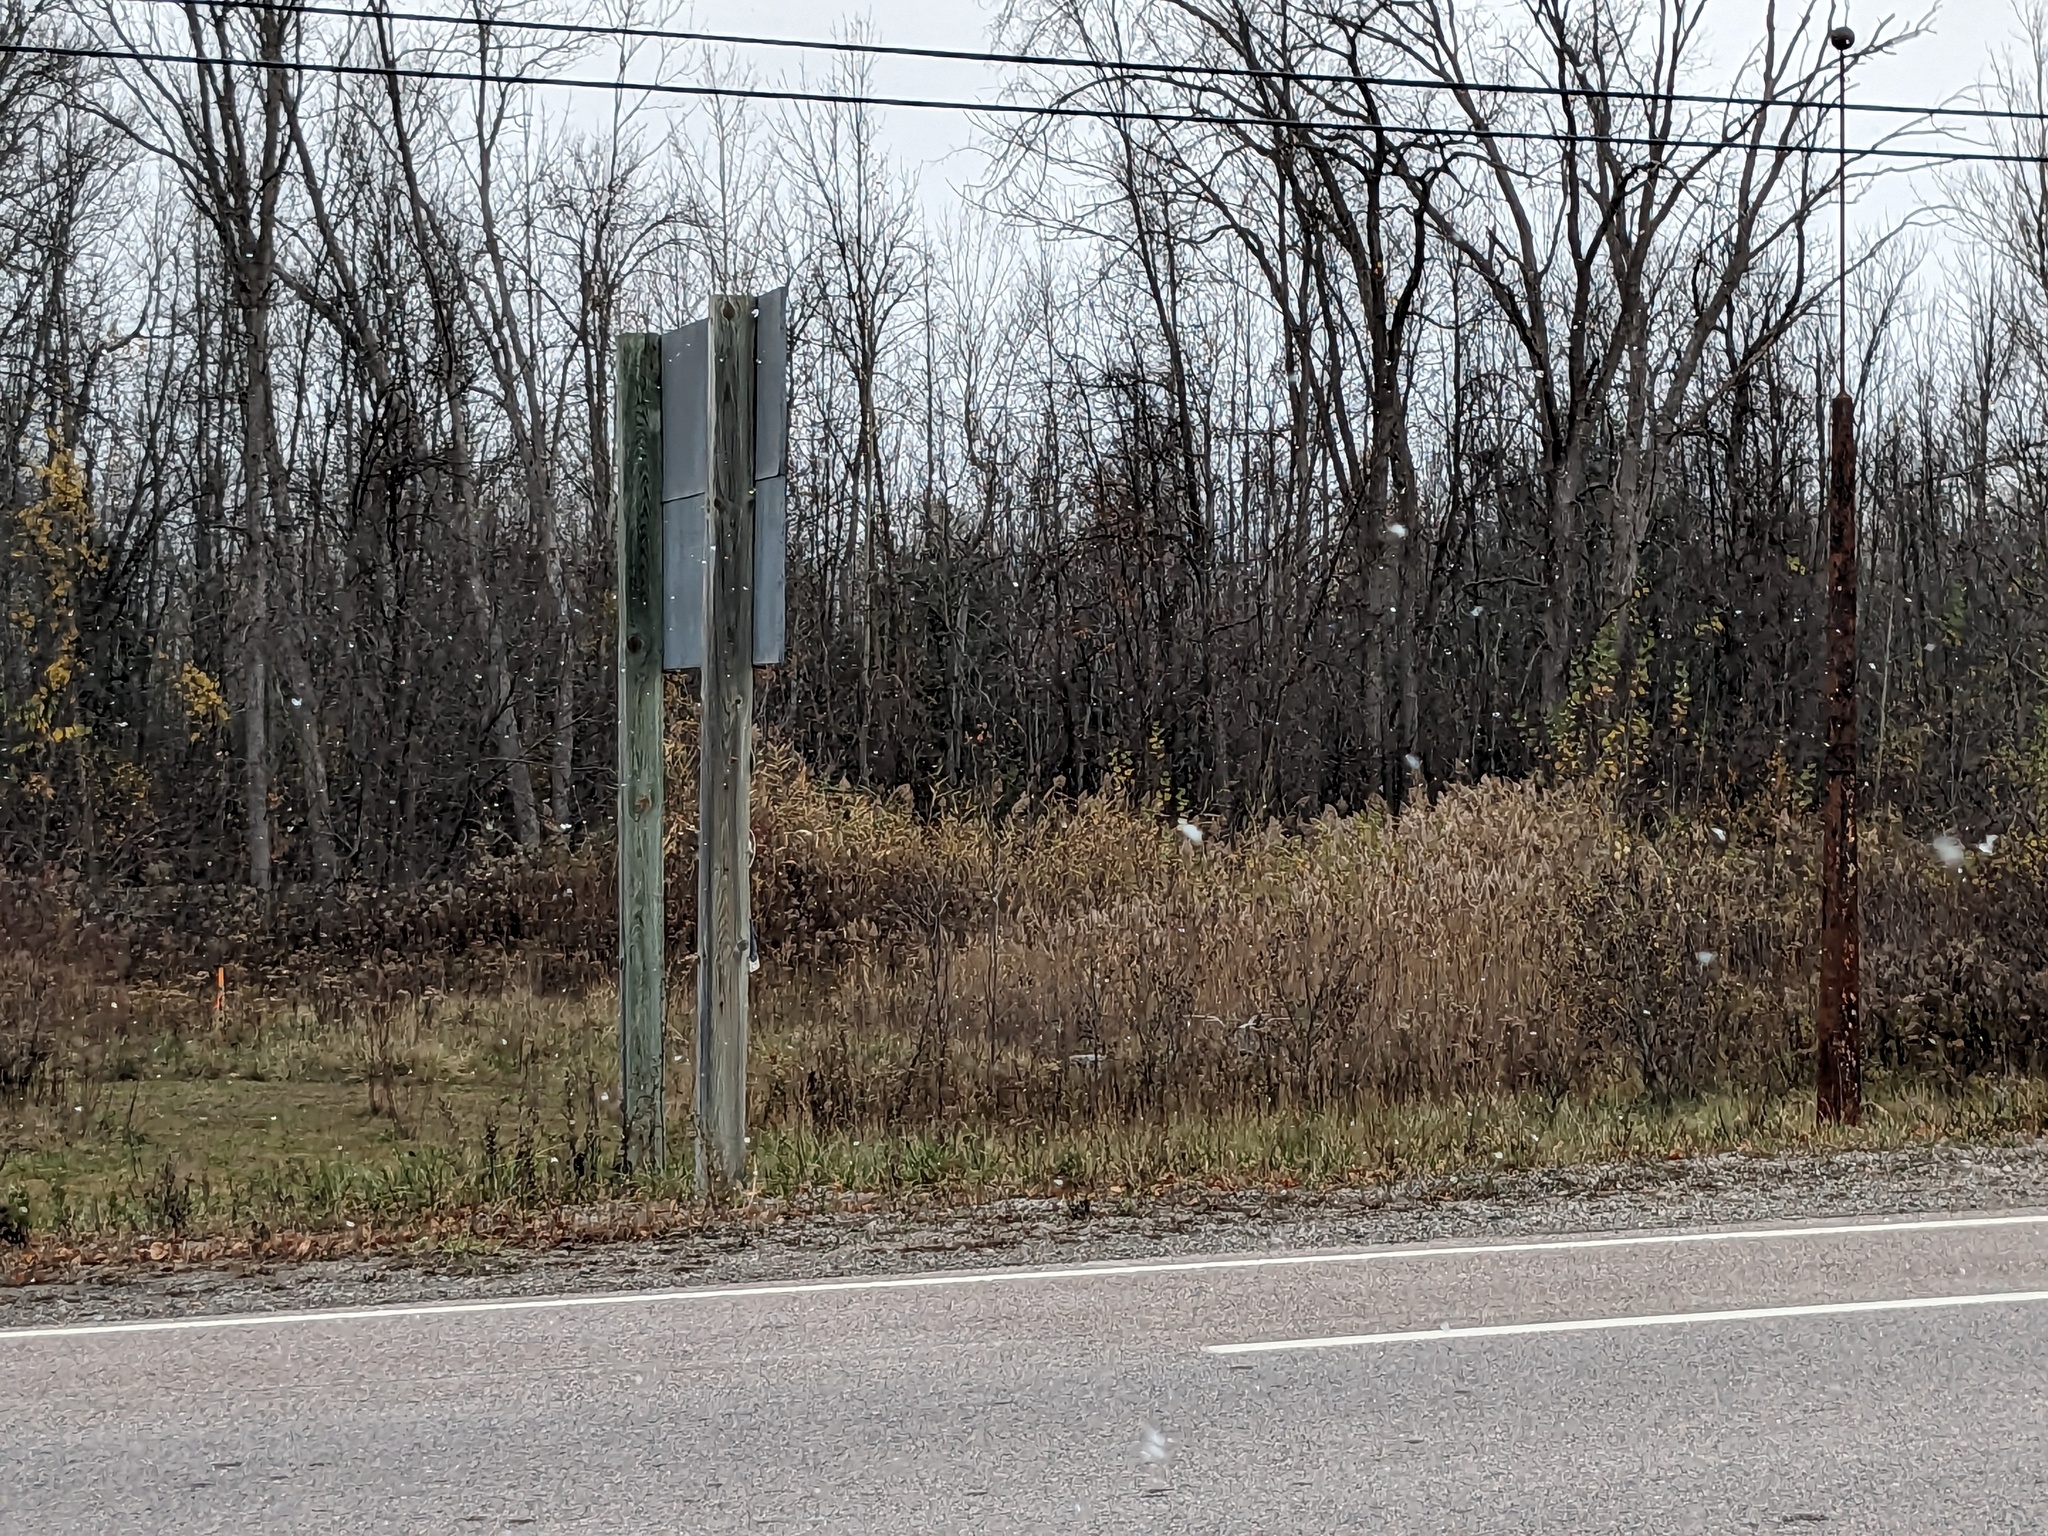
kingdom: Plantae
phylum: Tracheophyta
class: Liliopsida
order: Poales
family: Poaceae
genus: Phragmites
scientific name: Phragmites australis
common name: Common reed
